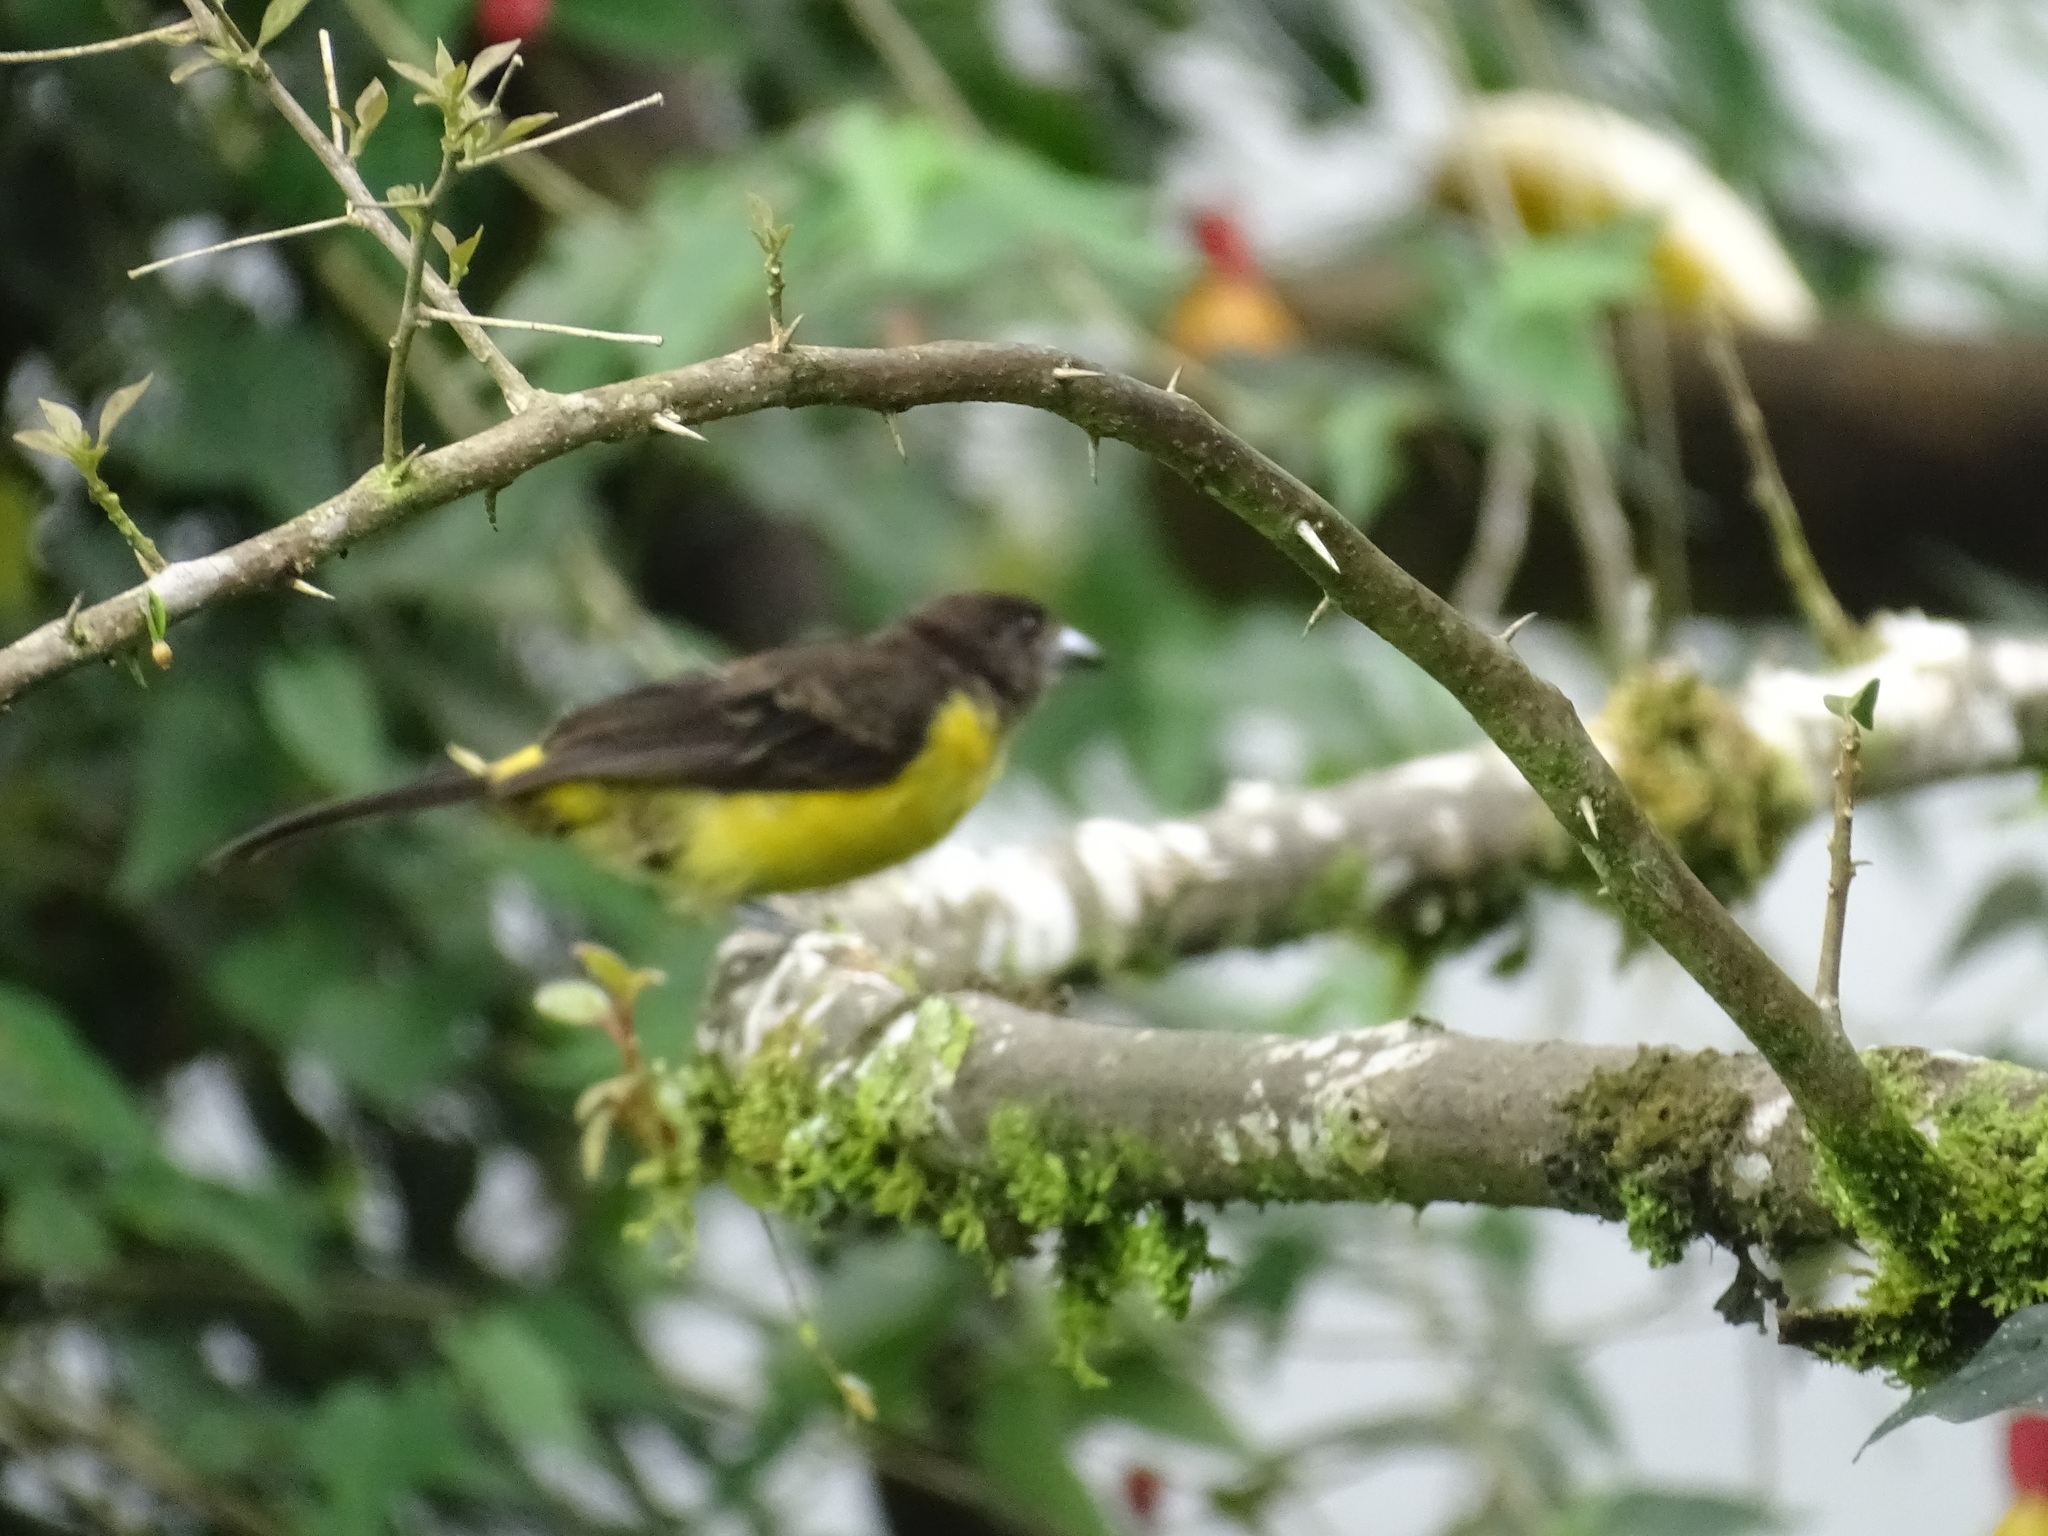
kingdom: Animalia
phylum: Chordata
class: Aves
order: Passeriformes
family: Thraupidae
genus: Ramphocelus
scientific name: Ramphocelus icteronotus
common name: Lemon-rumped tanager
